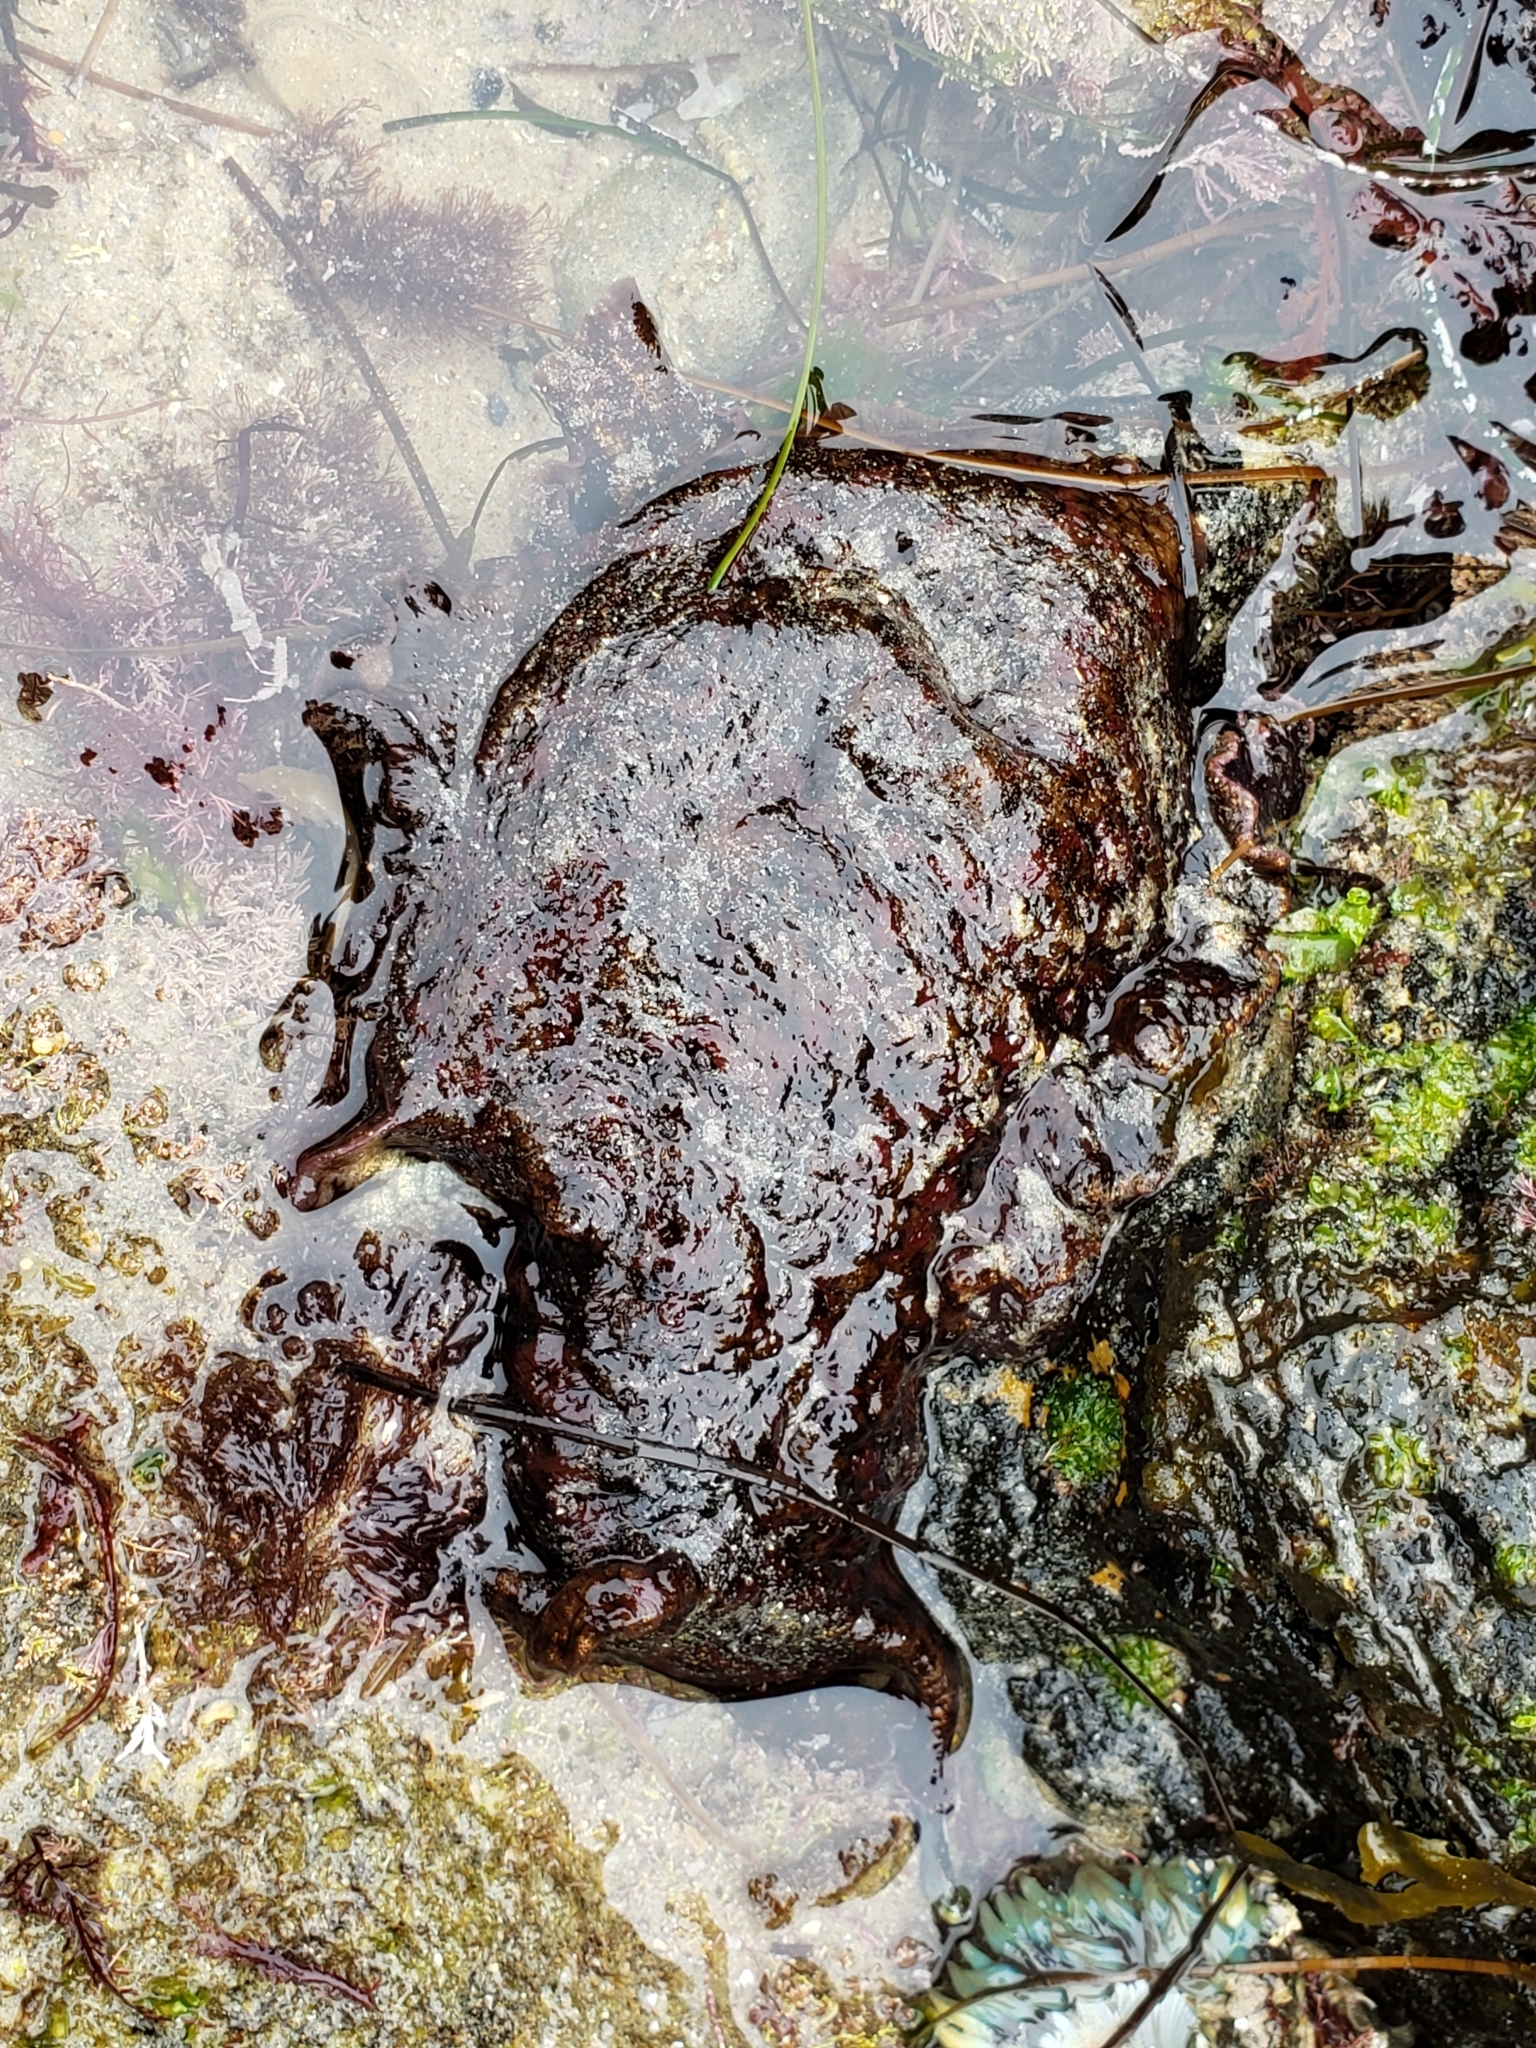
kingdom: Animalia
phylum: Mollusca
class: Gastropoda
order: Aplysiida
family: Aplysiidae
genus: Aplysia
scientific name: Aplysia californica
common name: California seahare
